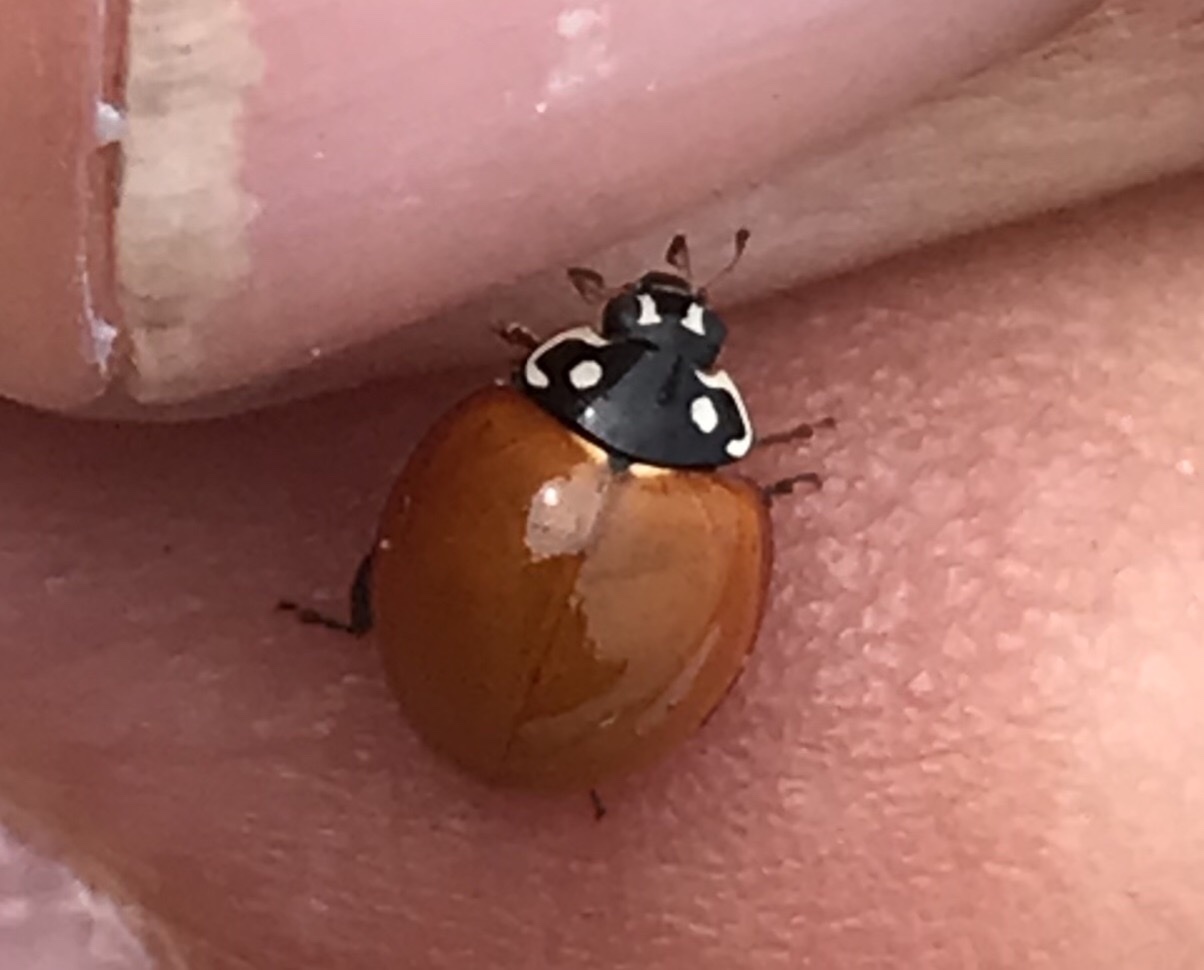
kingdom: Animalia
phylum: Arthropoda
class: Insecta
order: Coleoptera
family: Coccinellidae
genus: Cycloneda
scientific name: Cycloneda sanguinea
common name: Ladybird beetle
